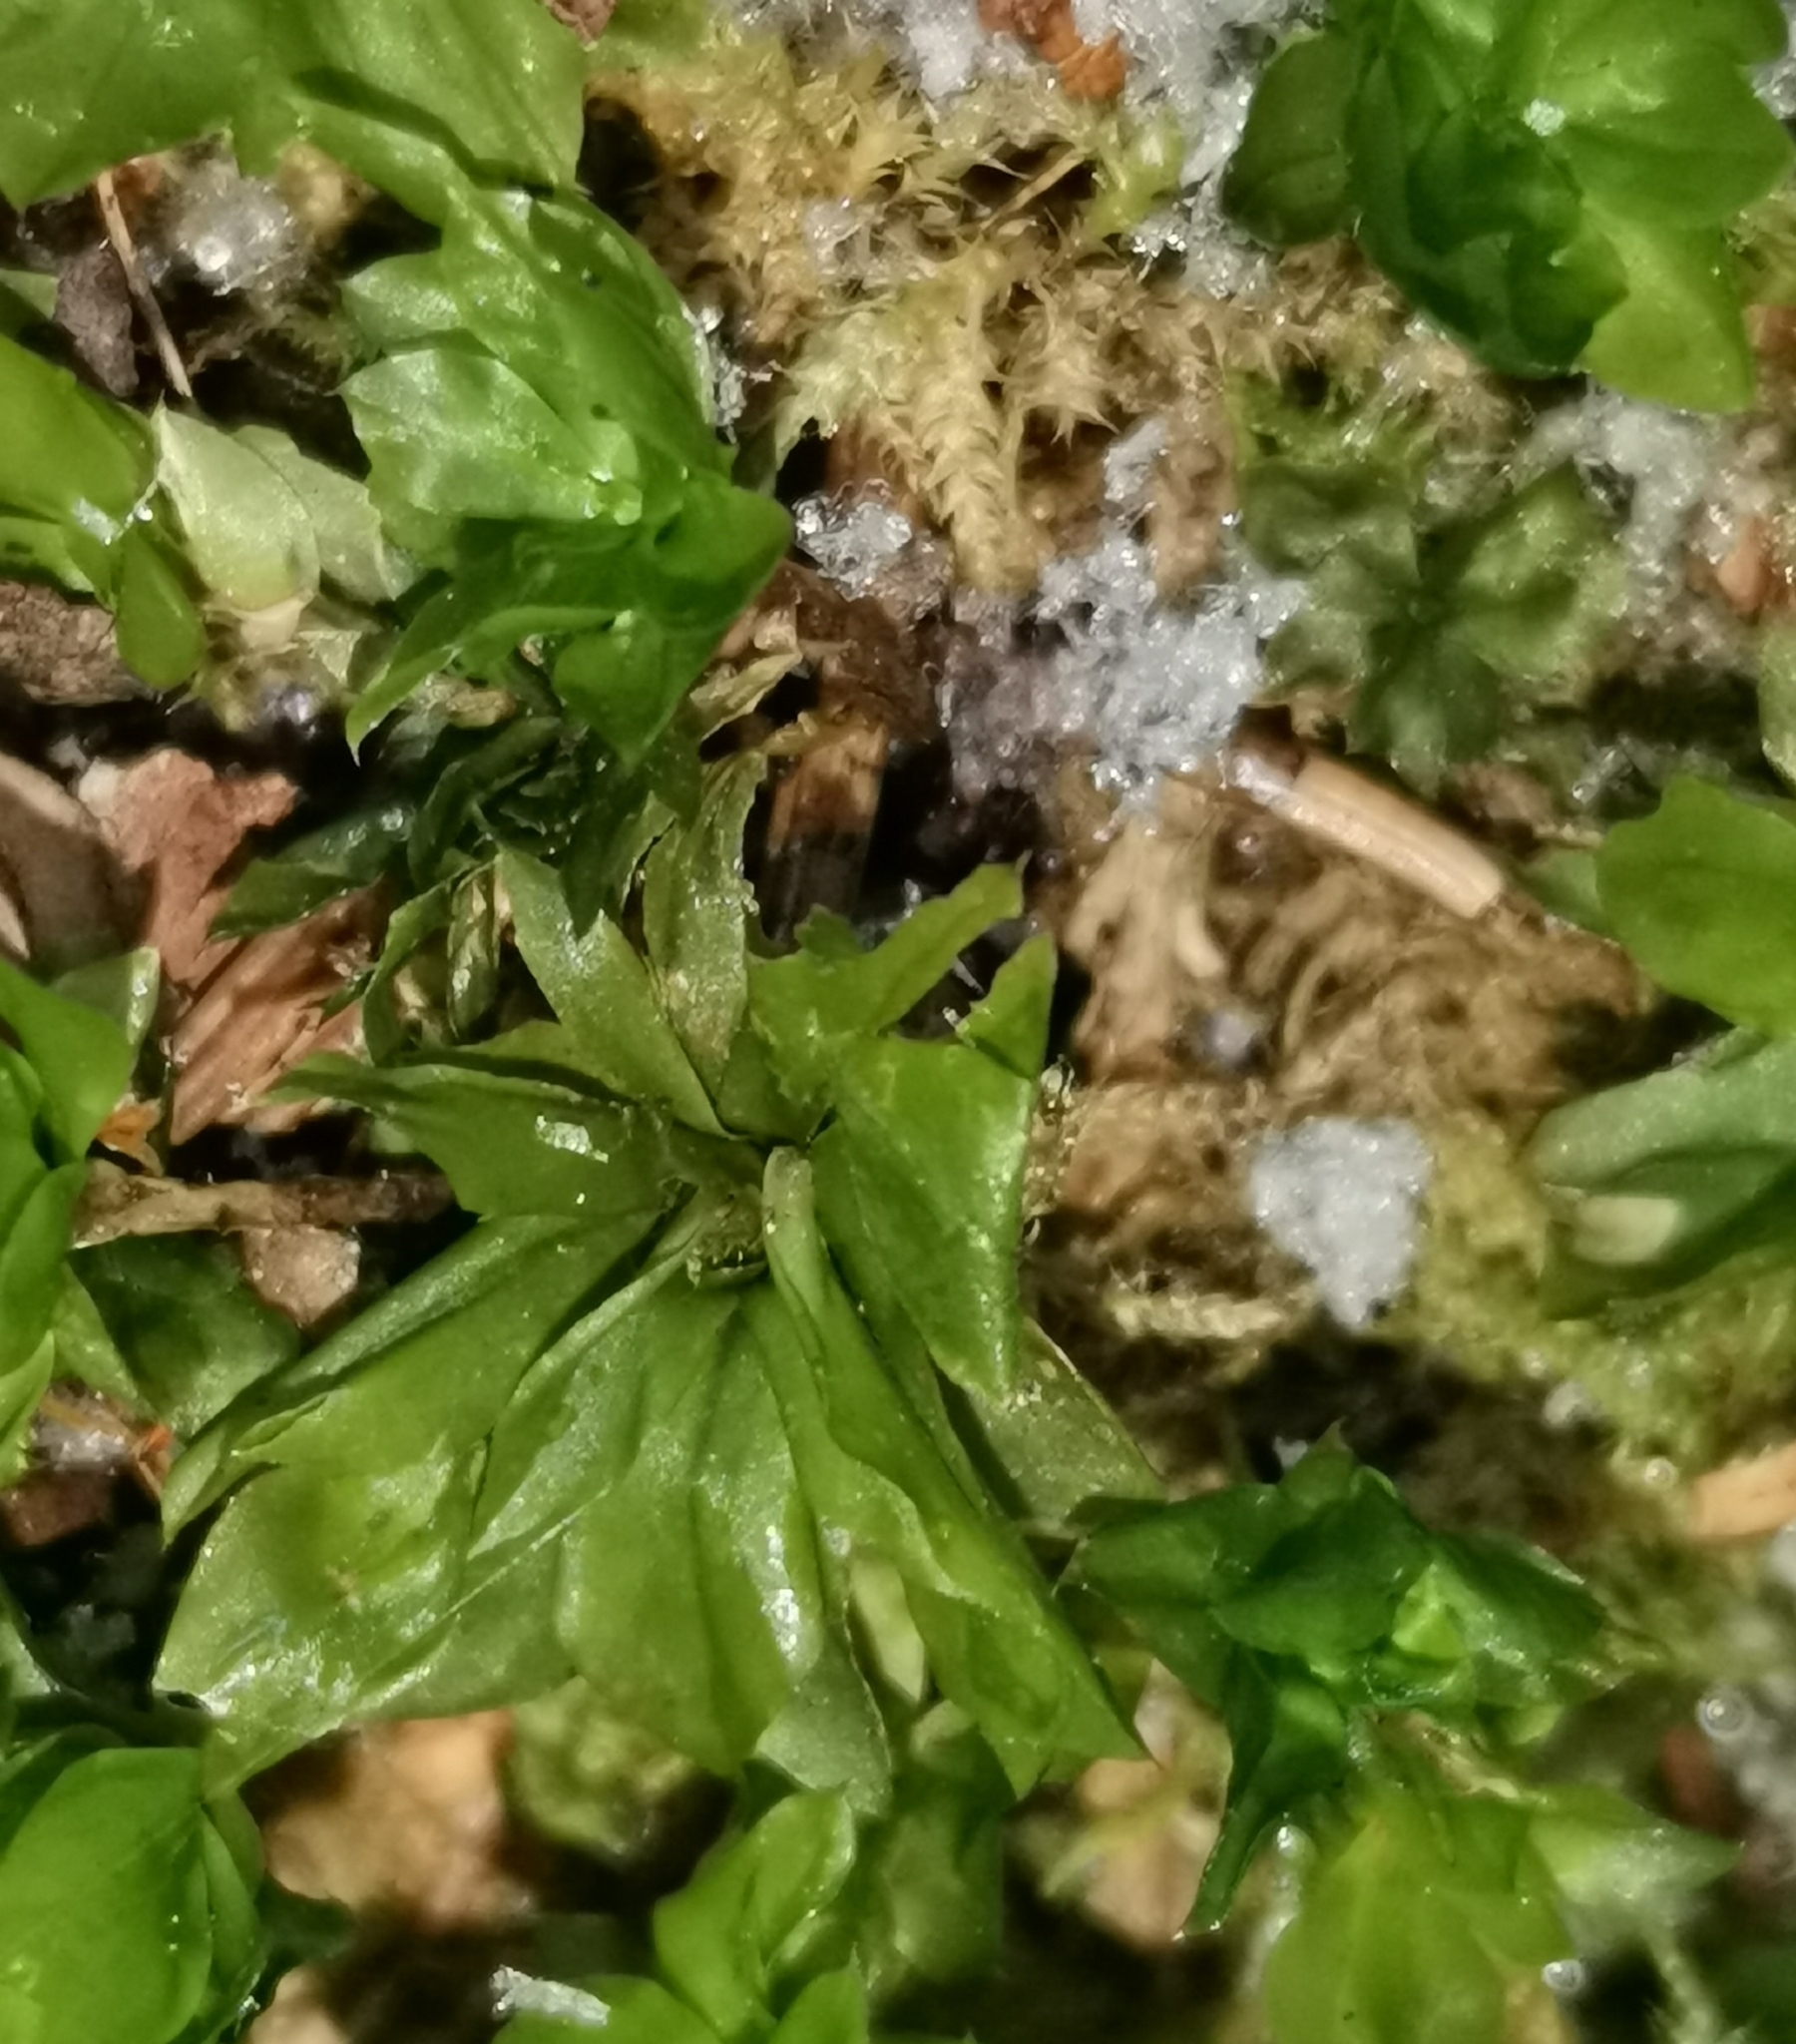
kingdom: Plantae
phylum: Bryophyta
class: Bryopsida
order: Bryales
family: Bryaceae
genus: Rhodobryum
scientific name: Rhodobryum roseum
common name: Rose-moss
